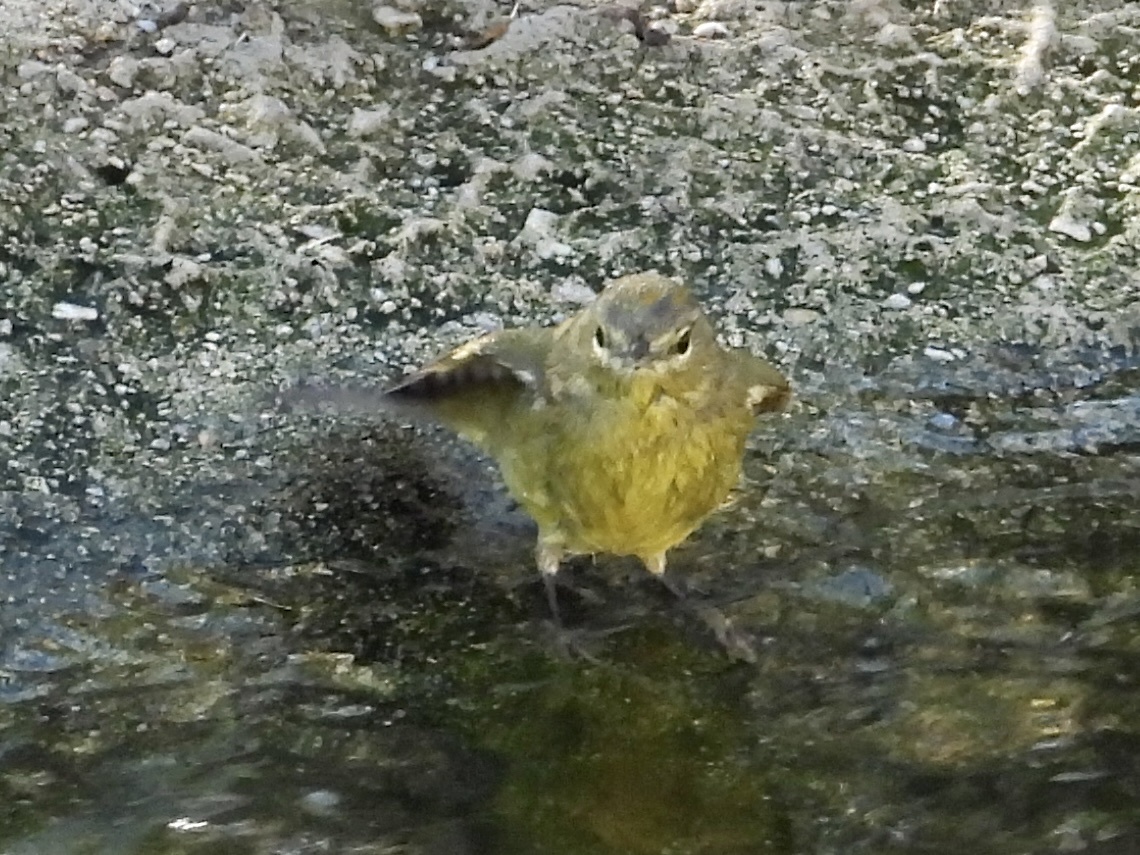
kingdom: Animalia
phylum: Chordata
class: Aves
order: Passeriformes
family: Parulidae
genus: Leiothlypis
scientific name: Leiothlypis celata
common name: Orange-crowned warbler
